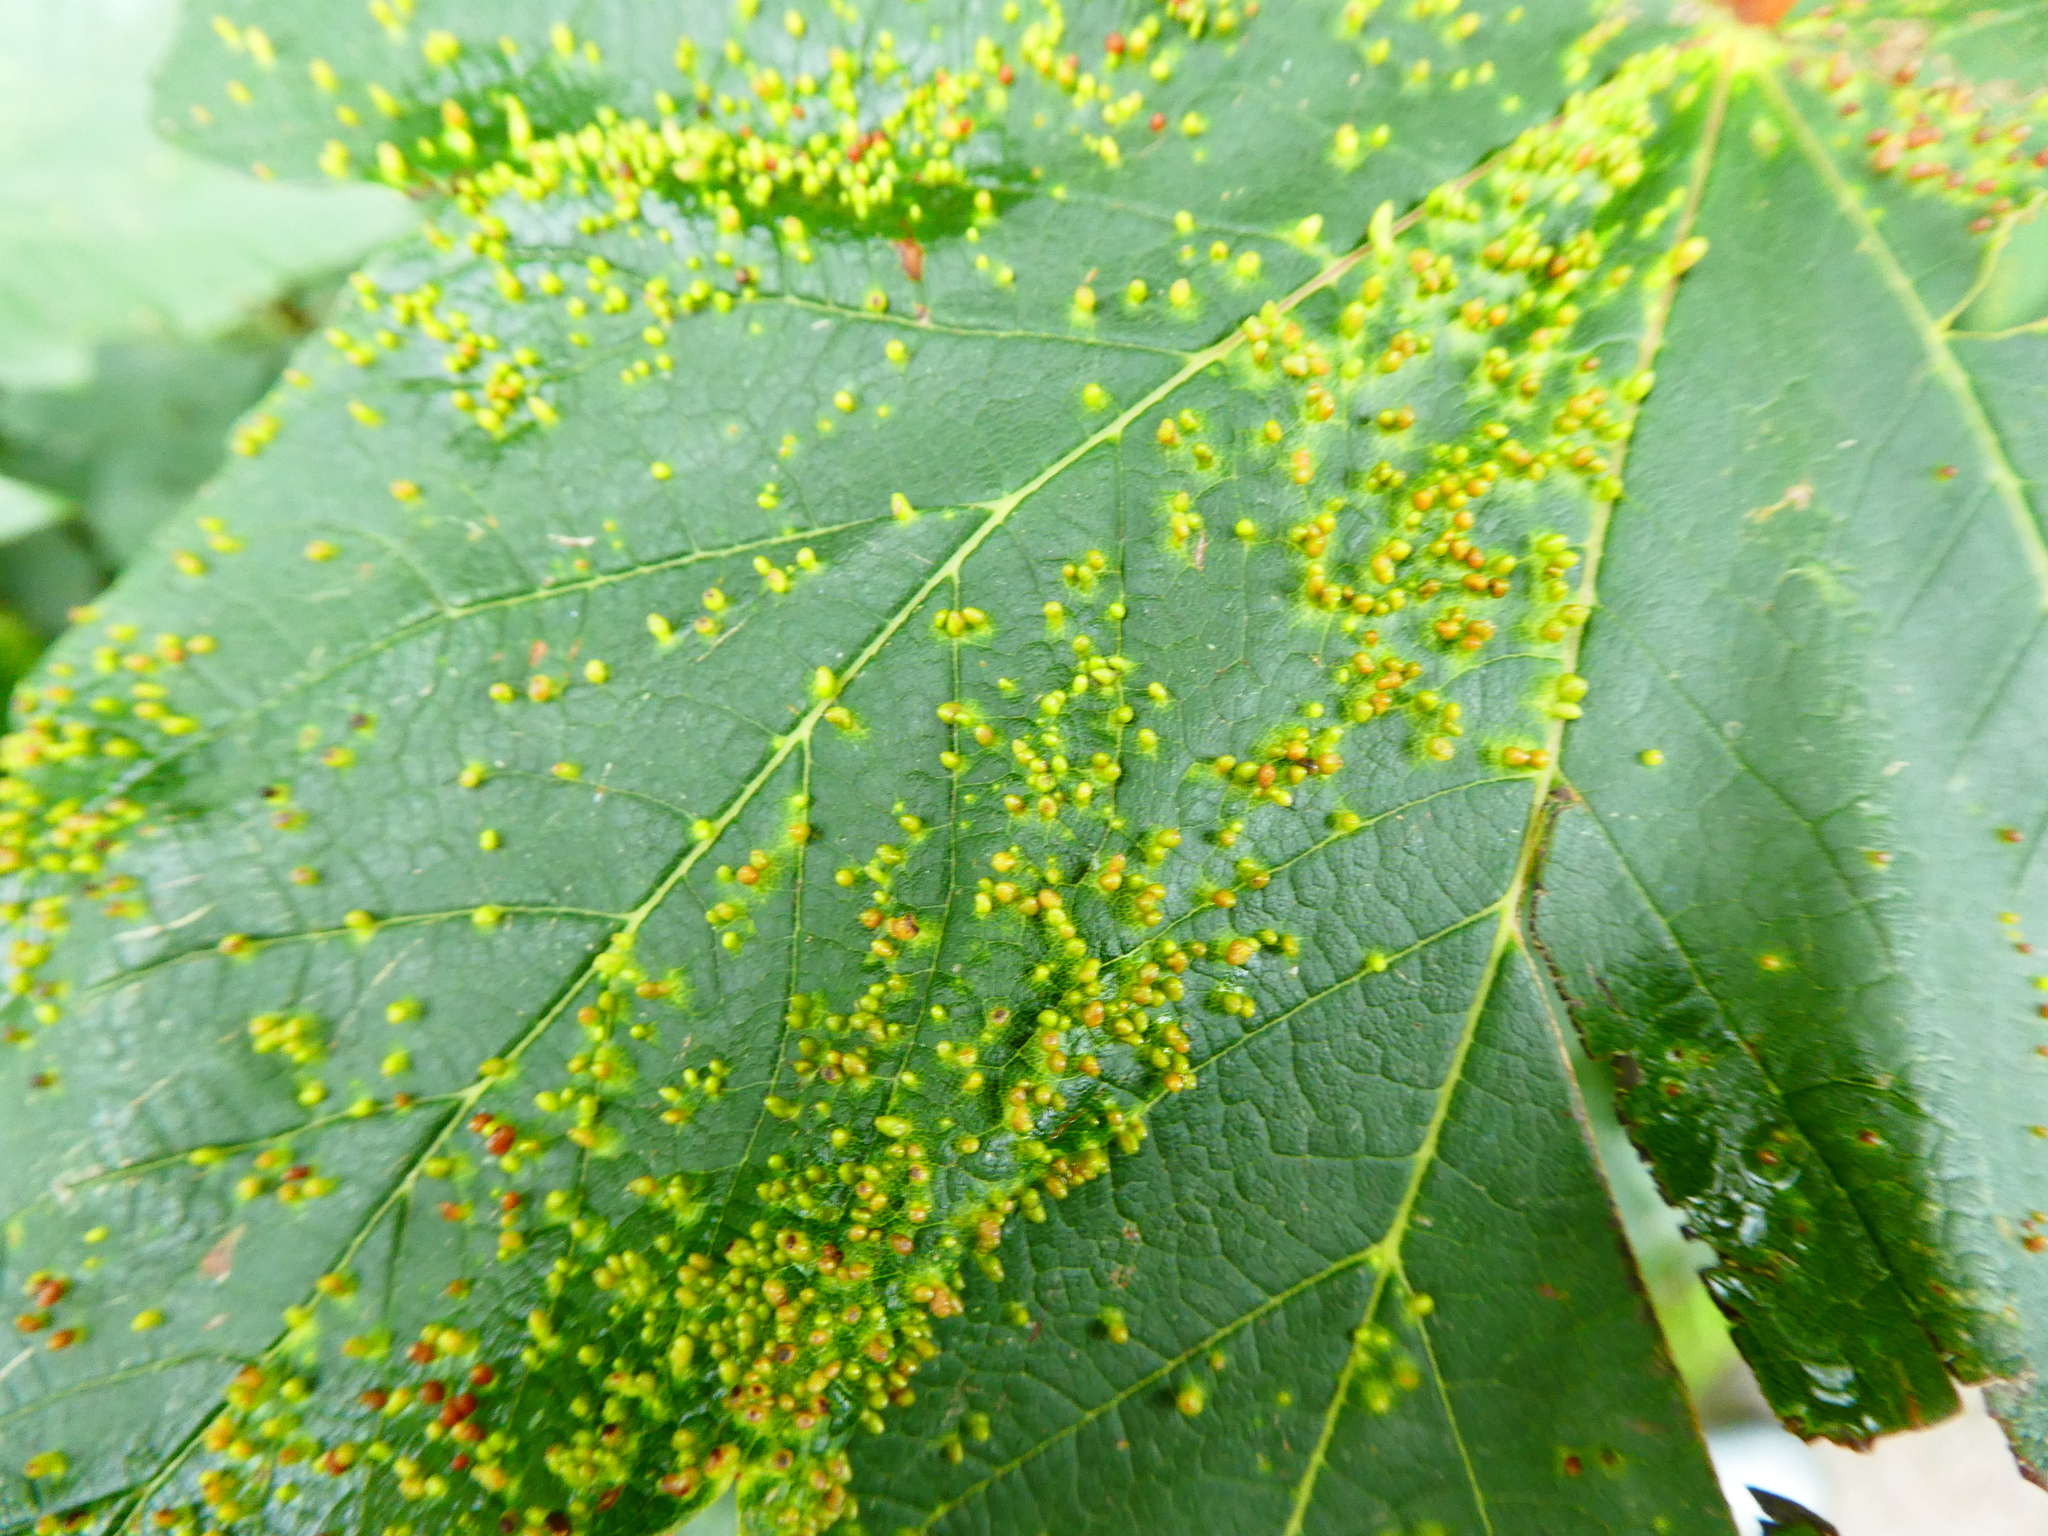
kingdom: Animalia
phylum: Arthropoda
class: Arachnida
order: Trombidiformes
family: Eriophyidae
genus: Aceria
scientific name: Aceria cephaloneus
